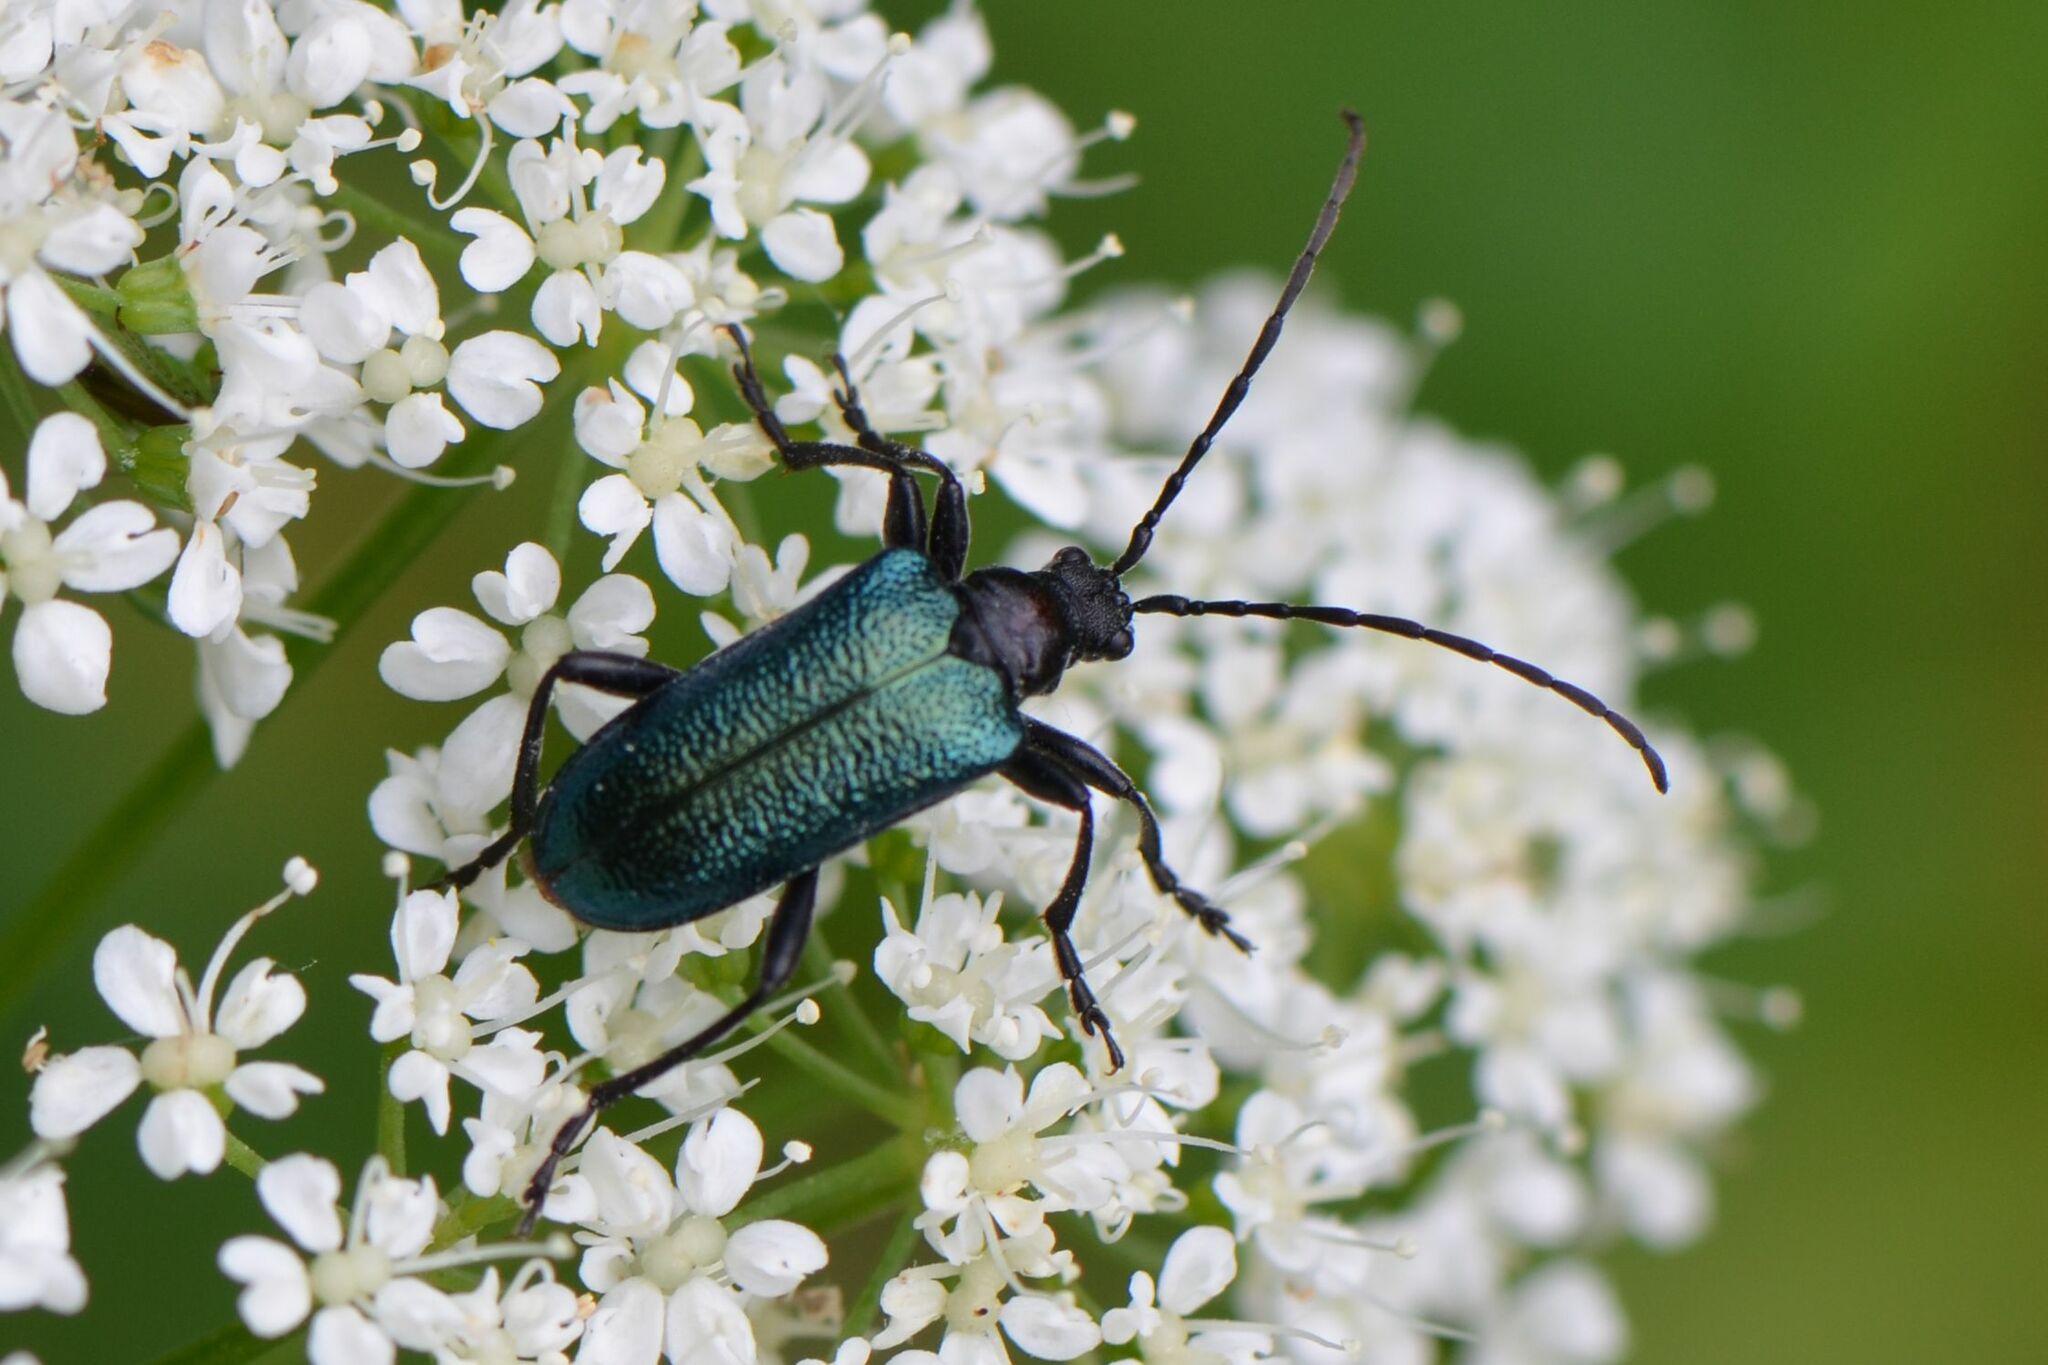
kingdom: Animalia
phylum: Arthropoda
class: Insecta
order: Coleoptera
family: Cerambycidae
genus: Gaurotes
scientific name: Gaurotes virginea
